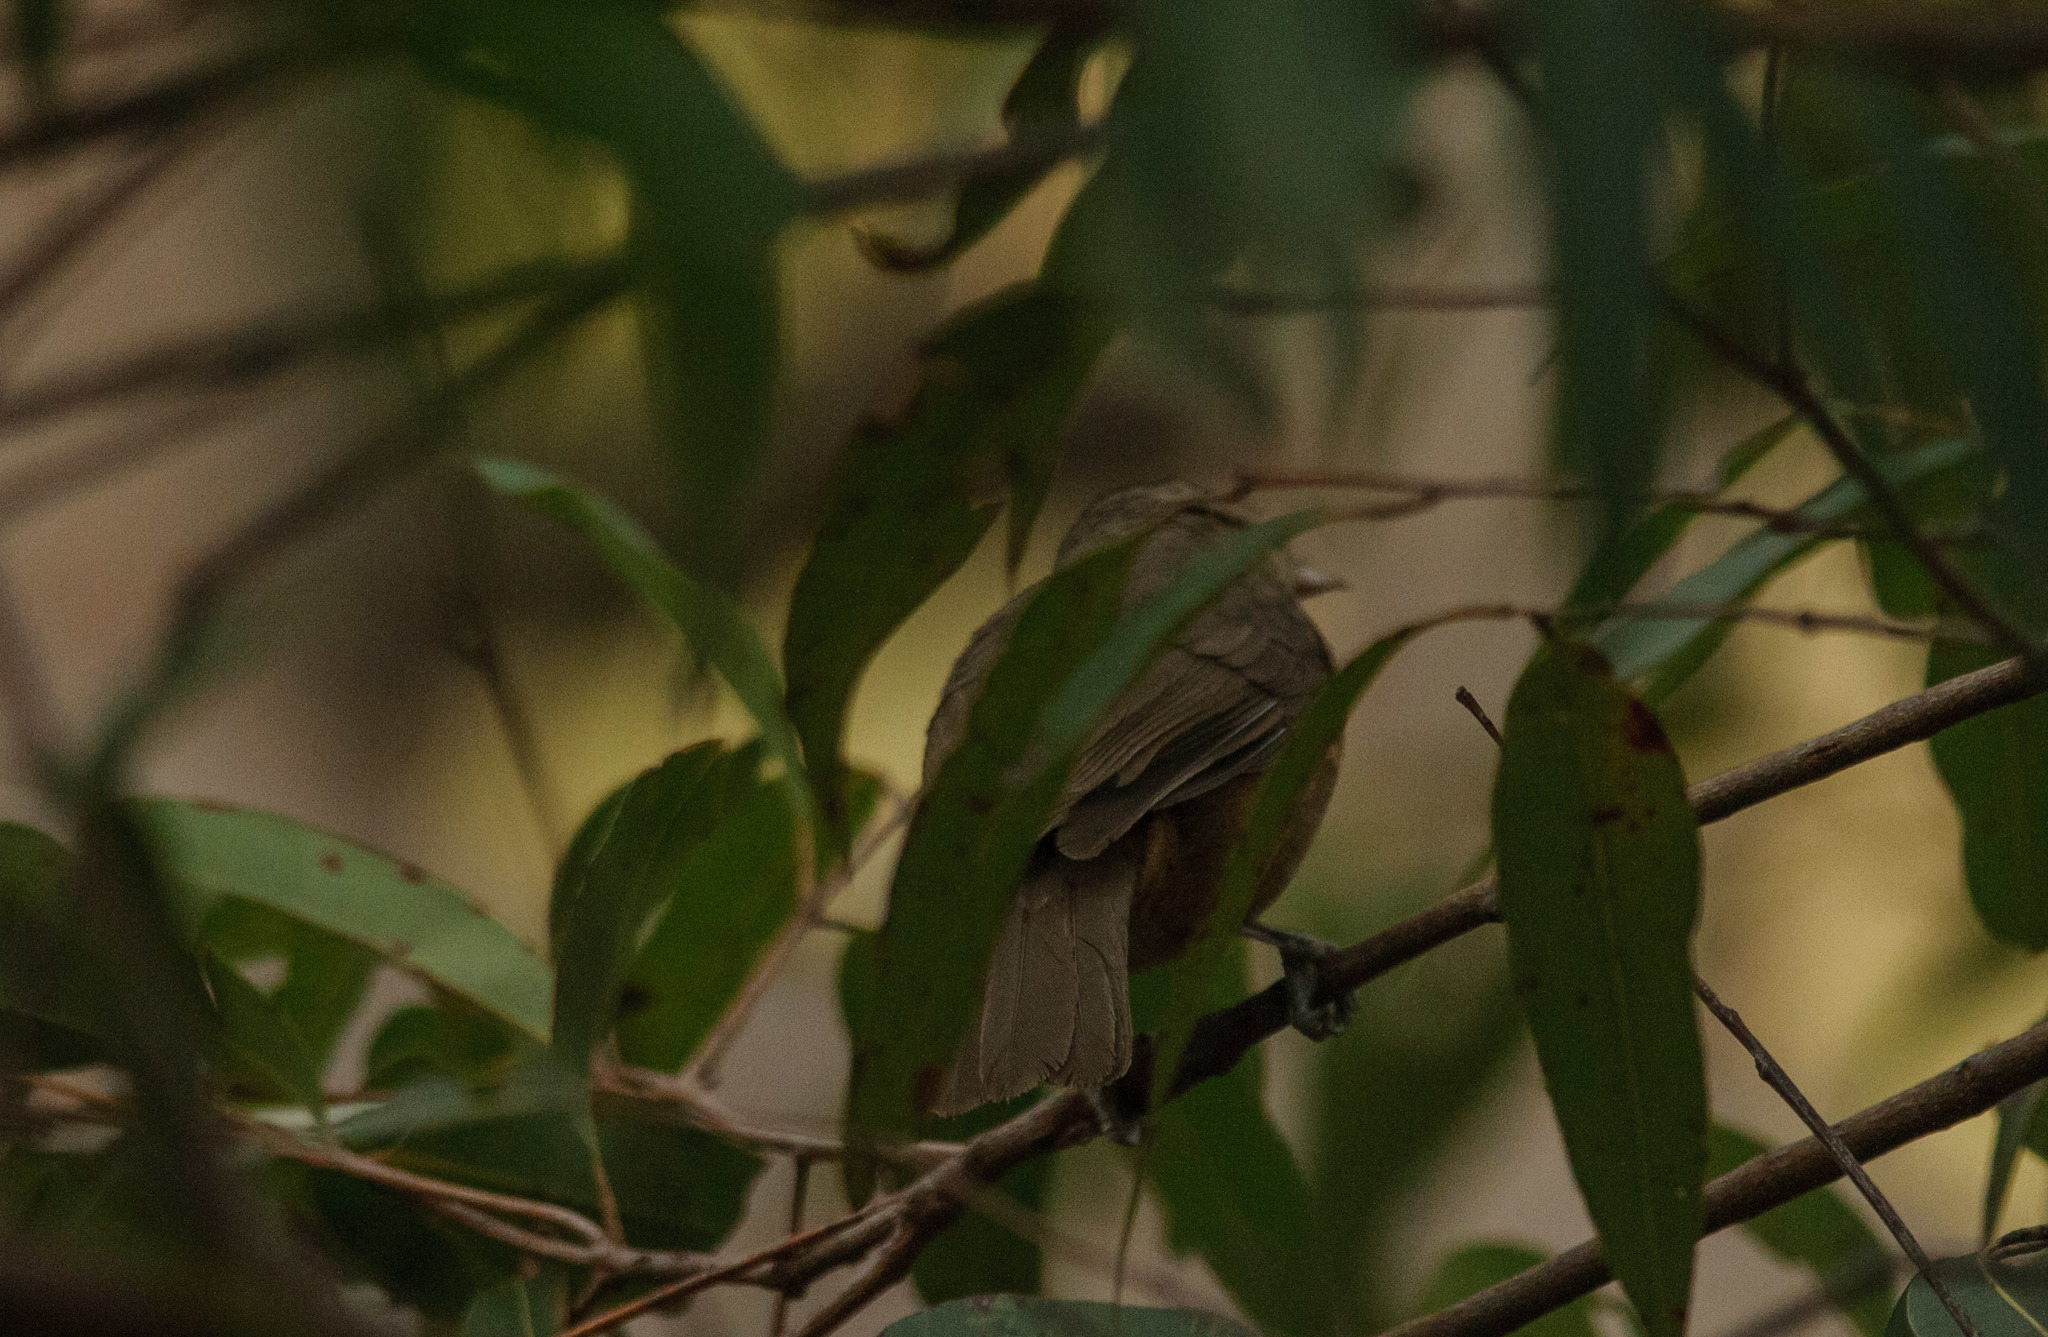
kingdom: Animalia
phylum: Chordata
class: Aves
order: Passeriformes
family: Pachycephalidae
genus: Colluricincla
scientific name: Colluricincla rufogaster
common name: Rufous shrikethrush
